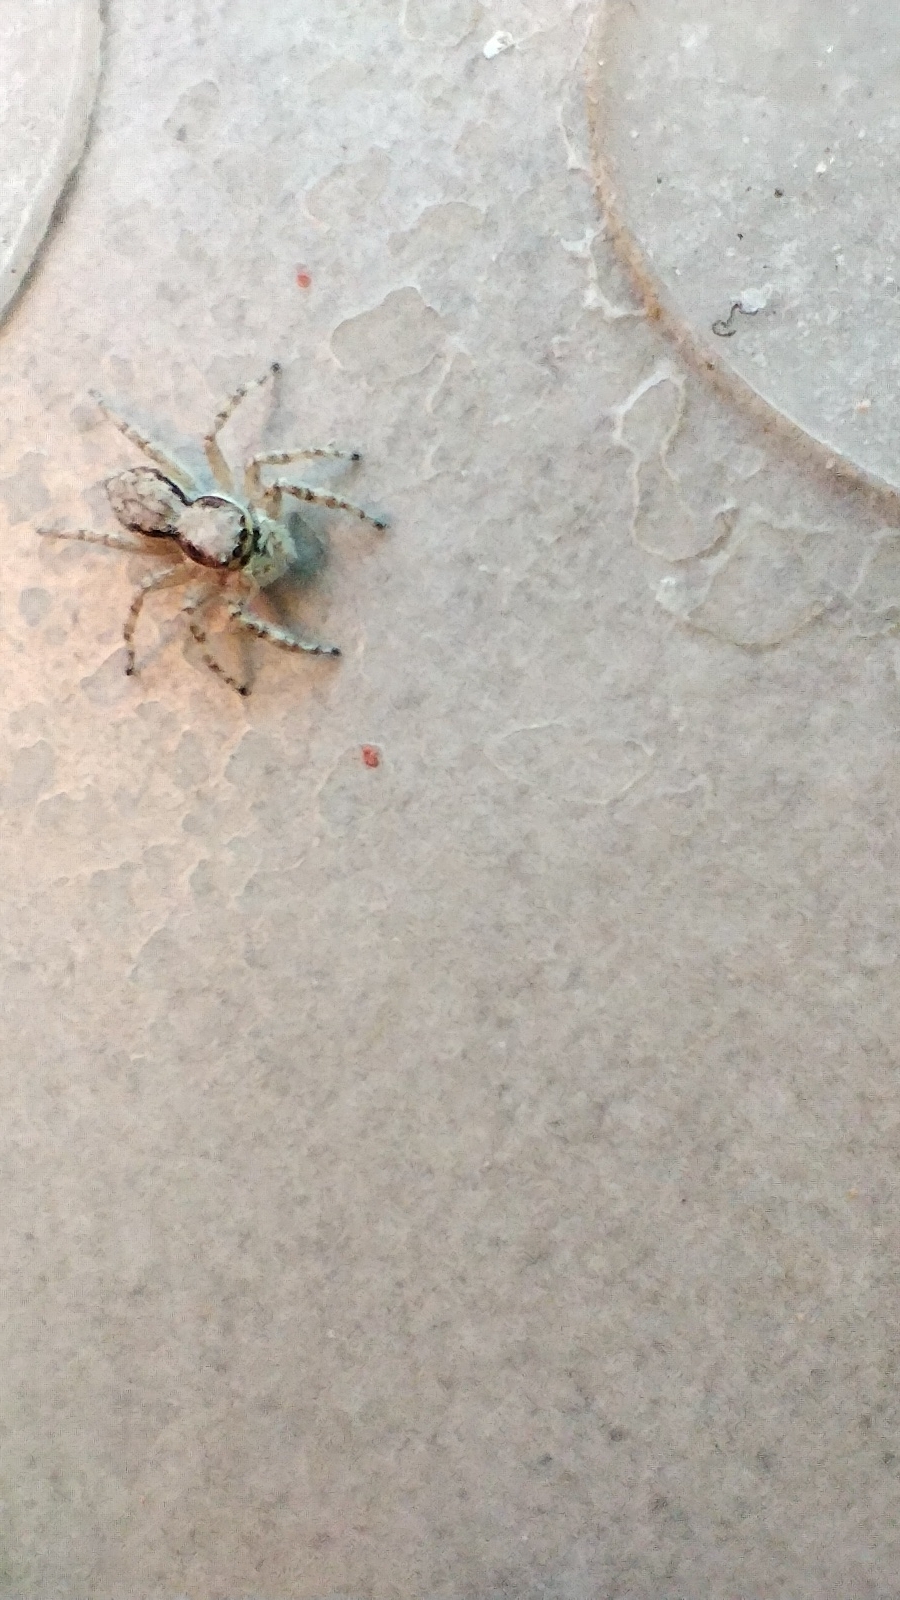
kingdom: Animalia
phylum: Arthropoda
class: Arachnida
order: Araneae
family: Salticidae
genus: Menemerus
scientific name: Menemerus bivittatus
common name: Gray wall jumper
